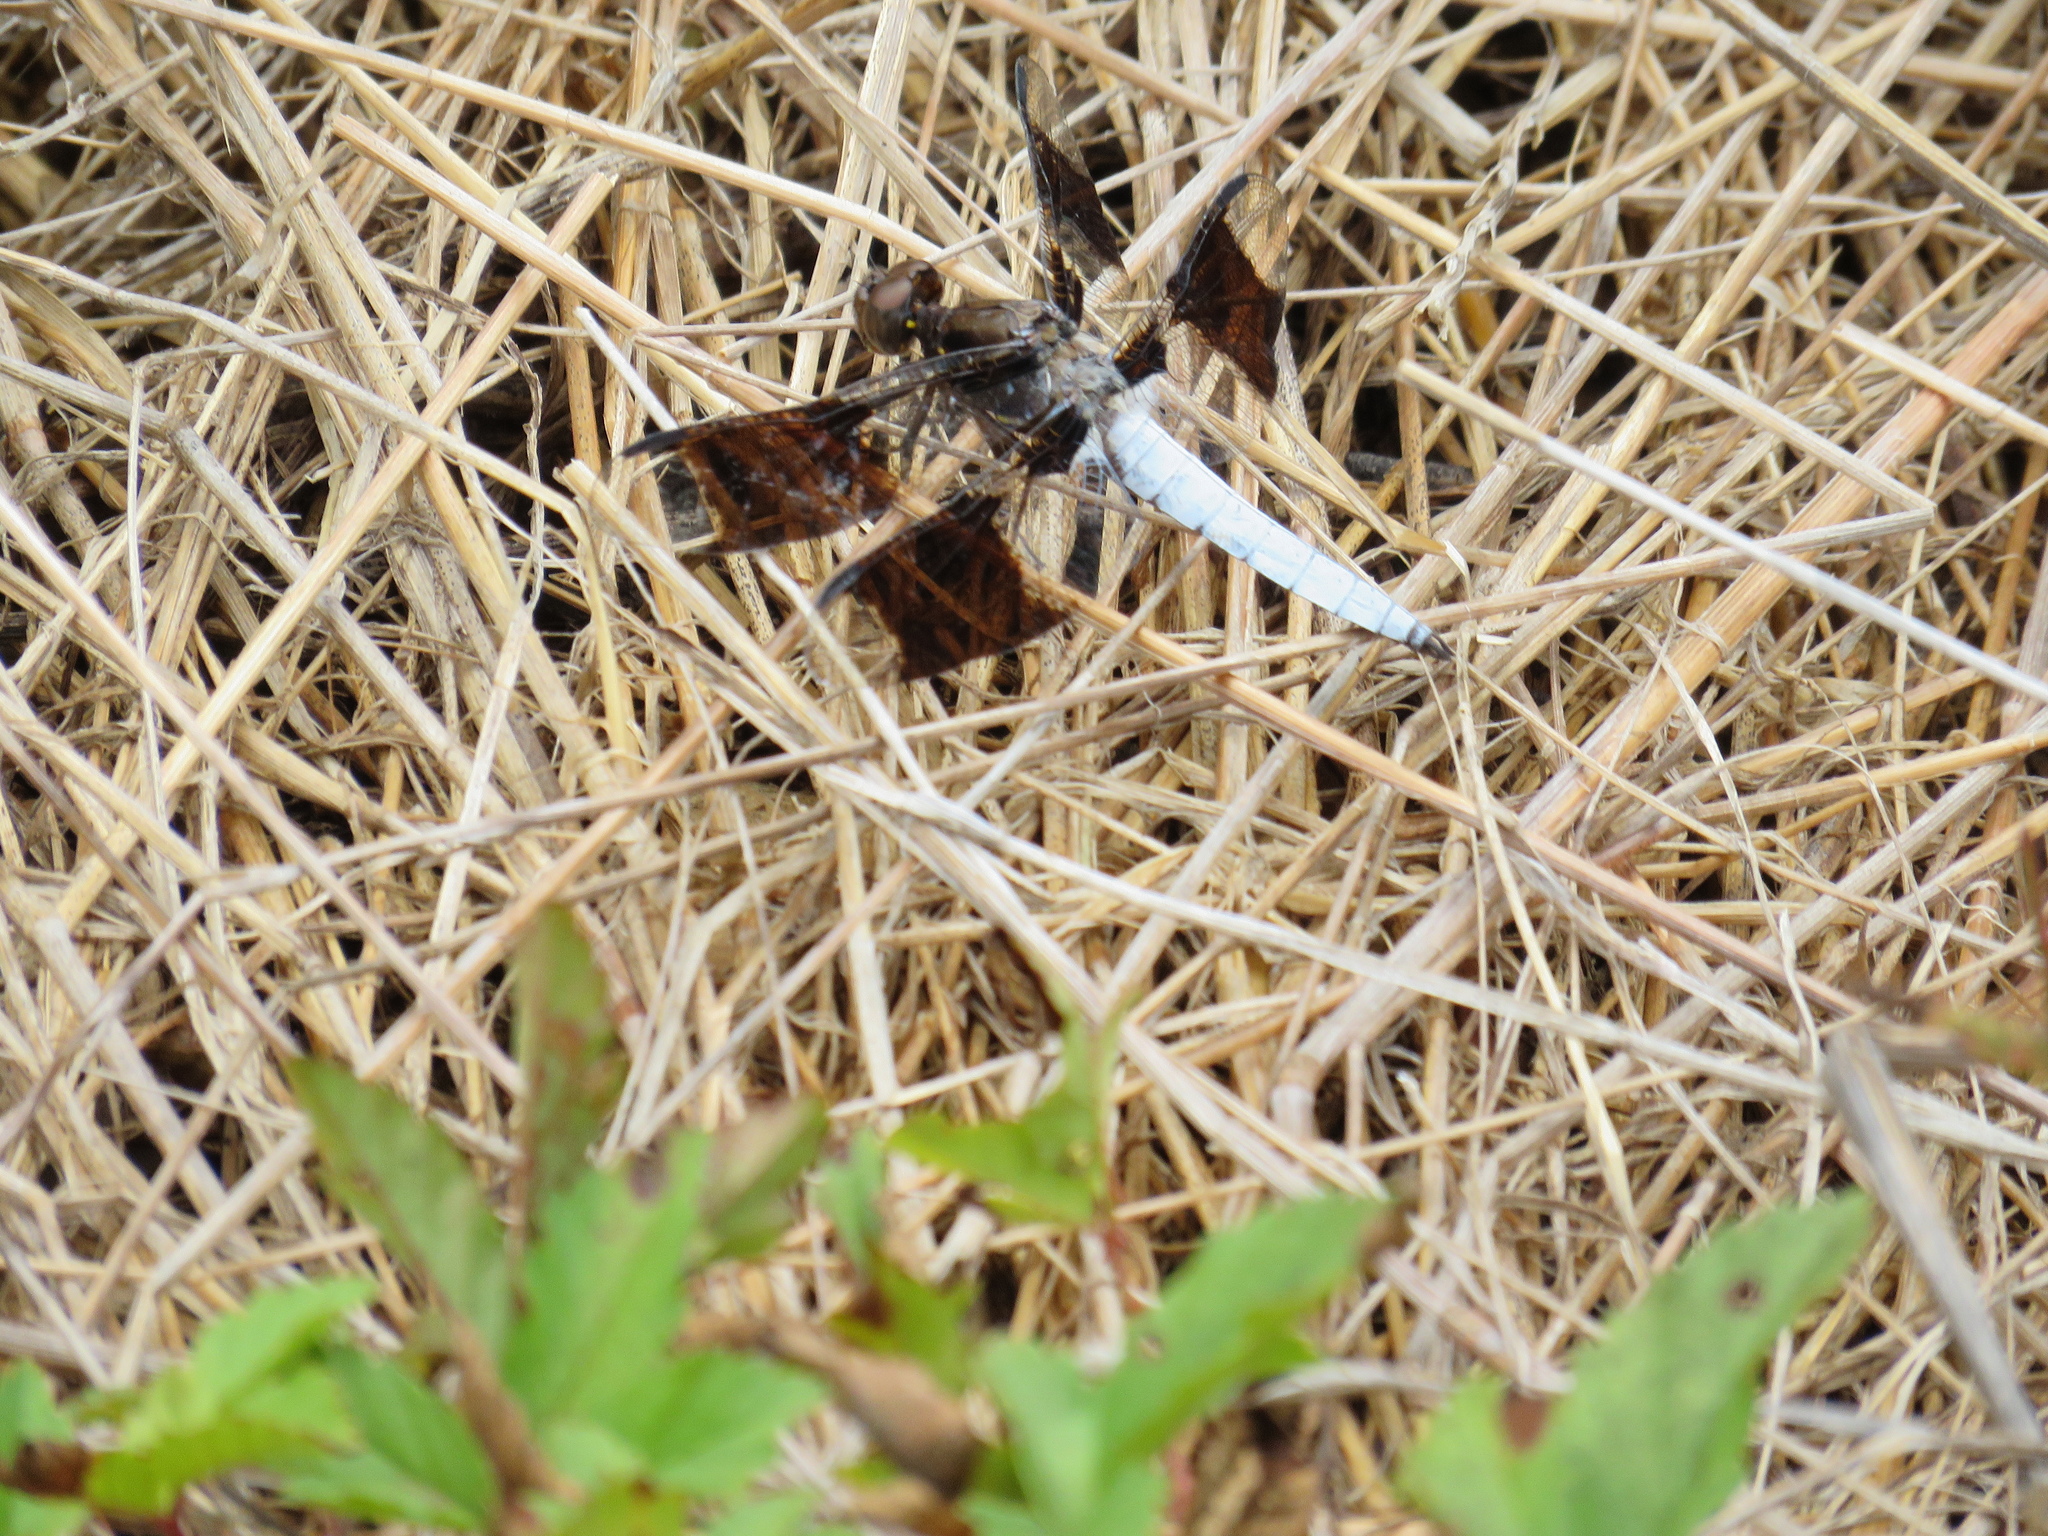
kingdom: Animalia
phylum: Arthropoda
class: Insecta
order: Odonata
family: Libellulidae
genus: Plathemis
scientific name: Plathemis lydia
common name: Common whitetail
